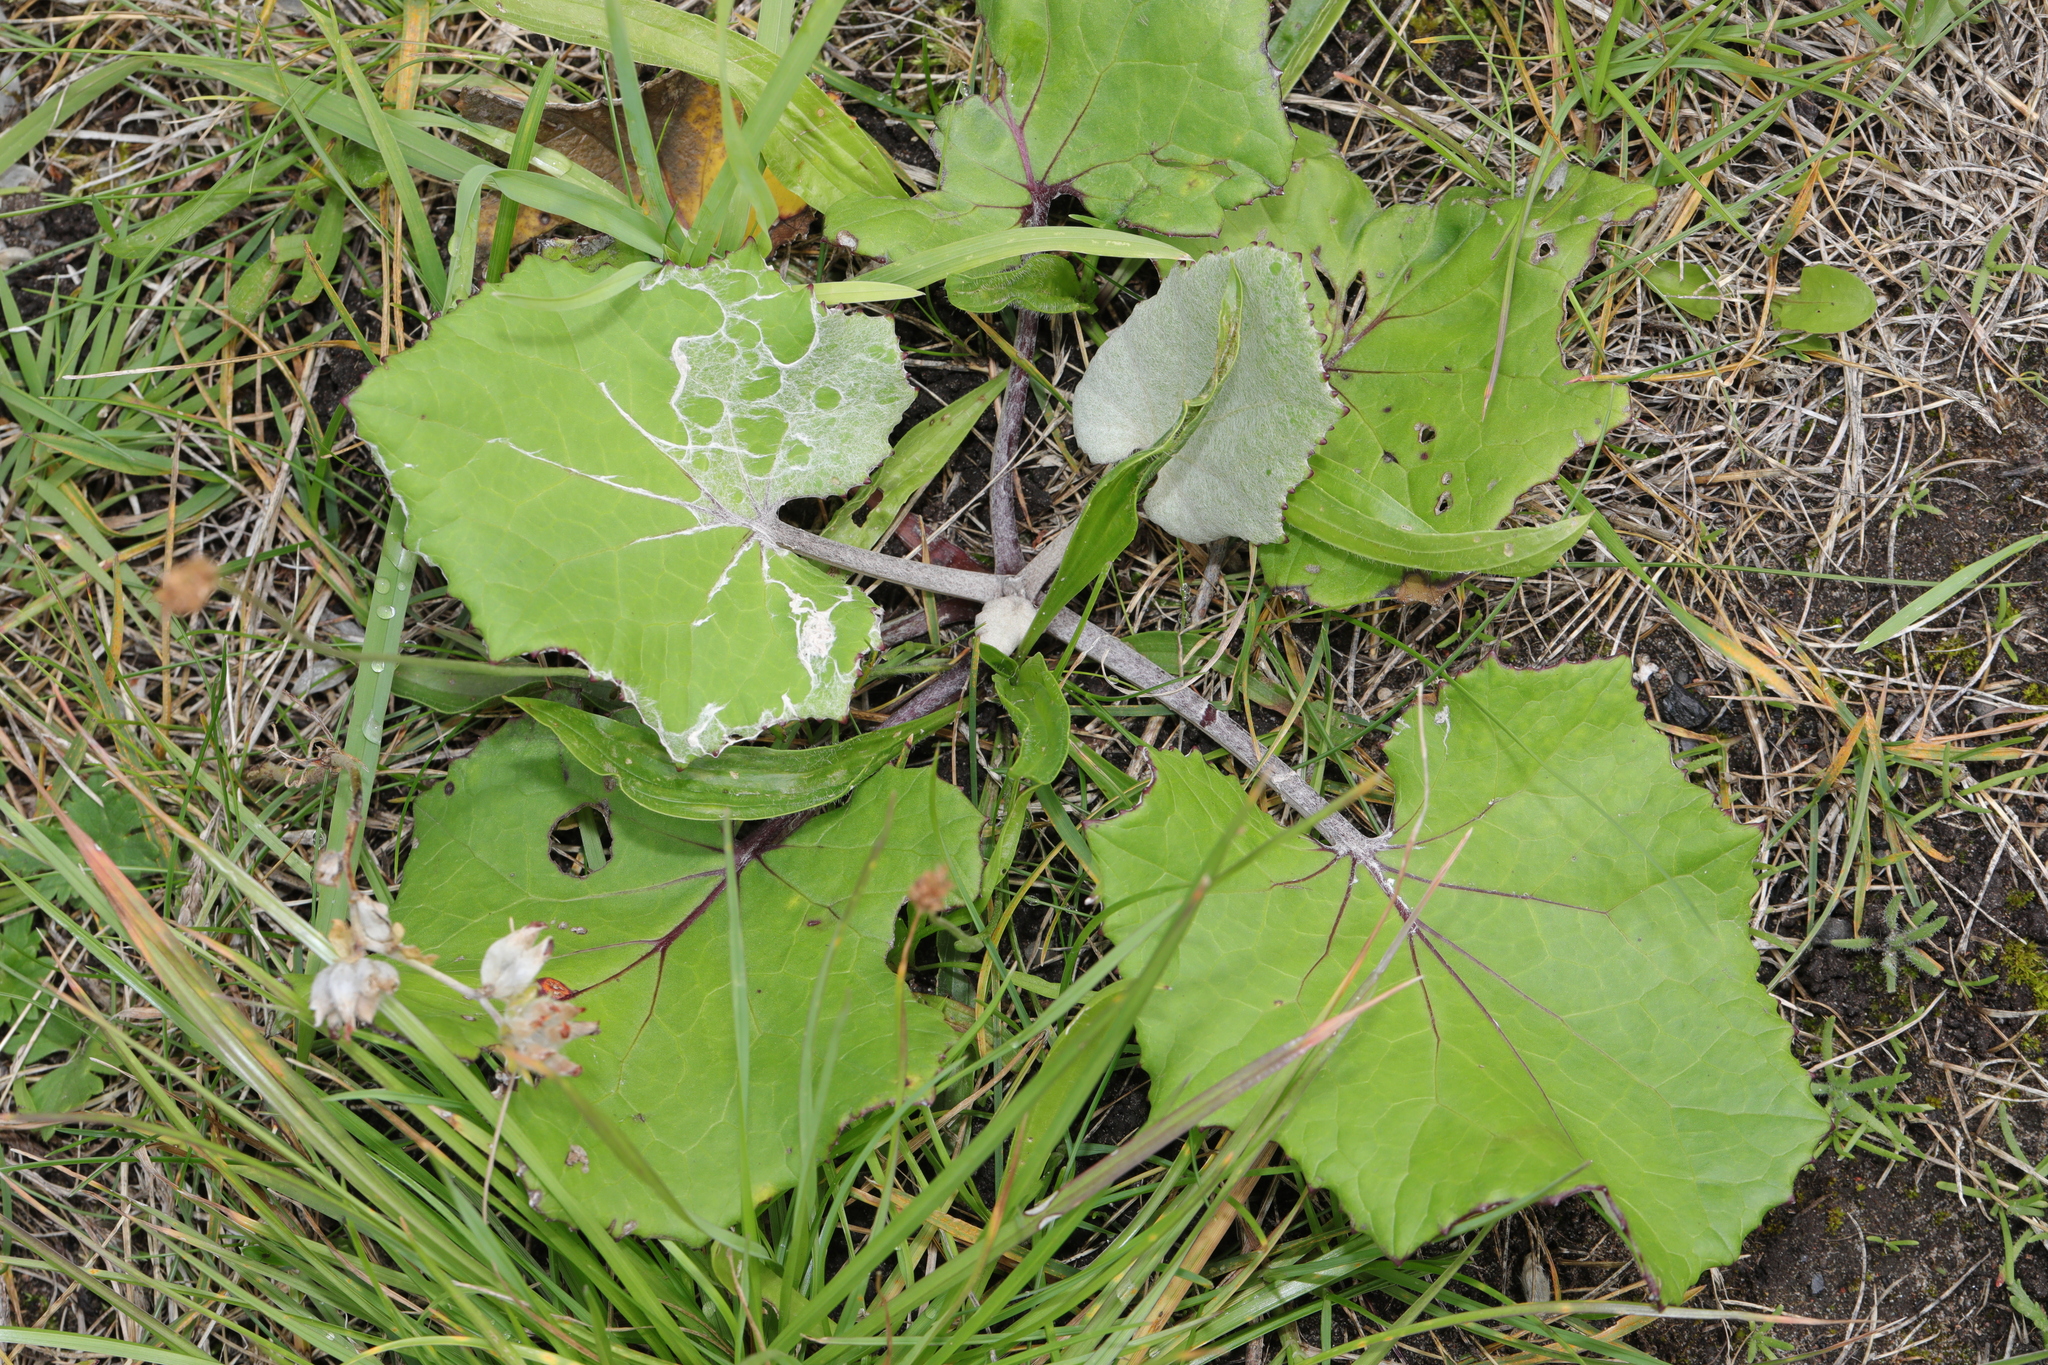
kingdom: Plantae
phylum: Tracheophyta
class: Magnoliopsida
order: Asterales
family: Asteraceae
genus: Tussilago
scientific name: Tussilago farfara
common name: Coltsfoot
